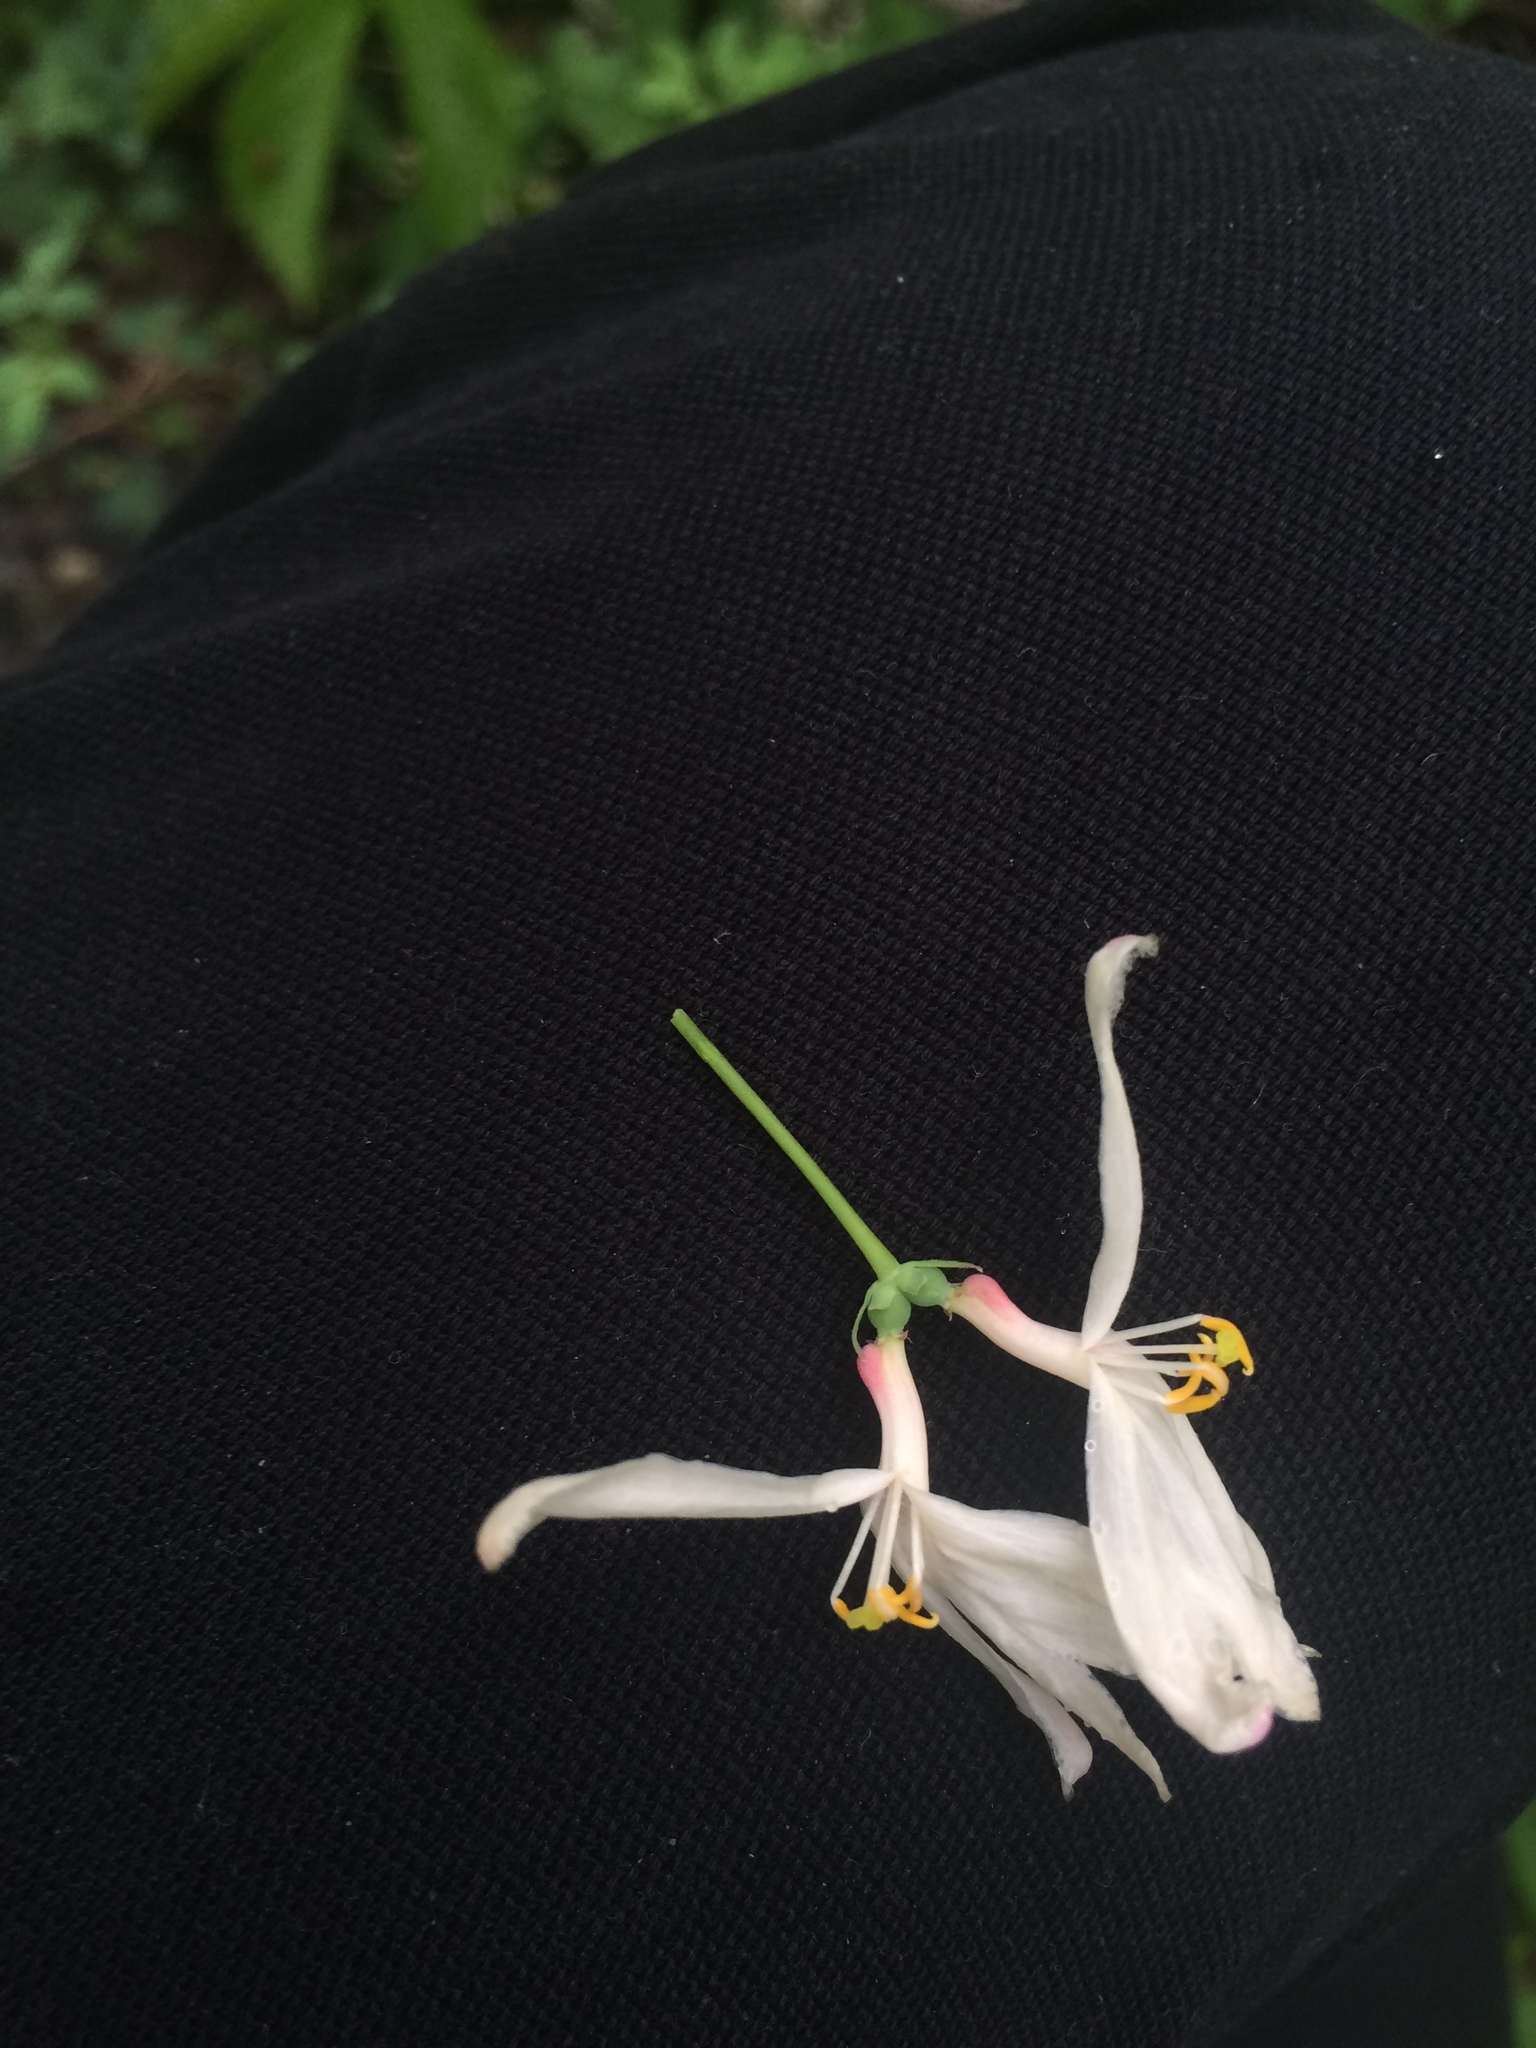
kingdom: Plantae
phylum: Tracheophyta
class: Magnoliopsida
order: Dipsacales
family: Caprifoliaceae
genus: Lonicera
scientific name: Lonicera tatarica
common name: Tatarian honeysuckle
